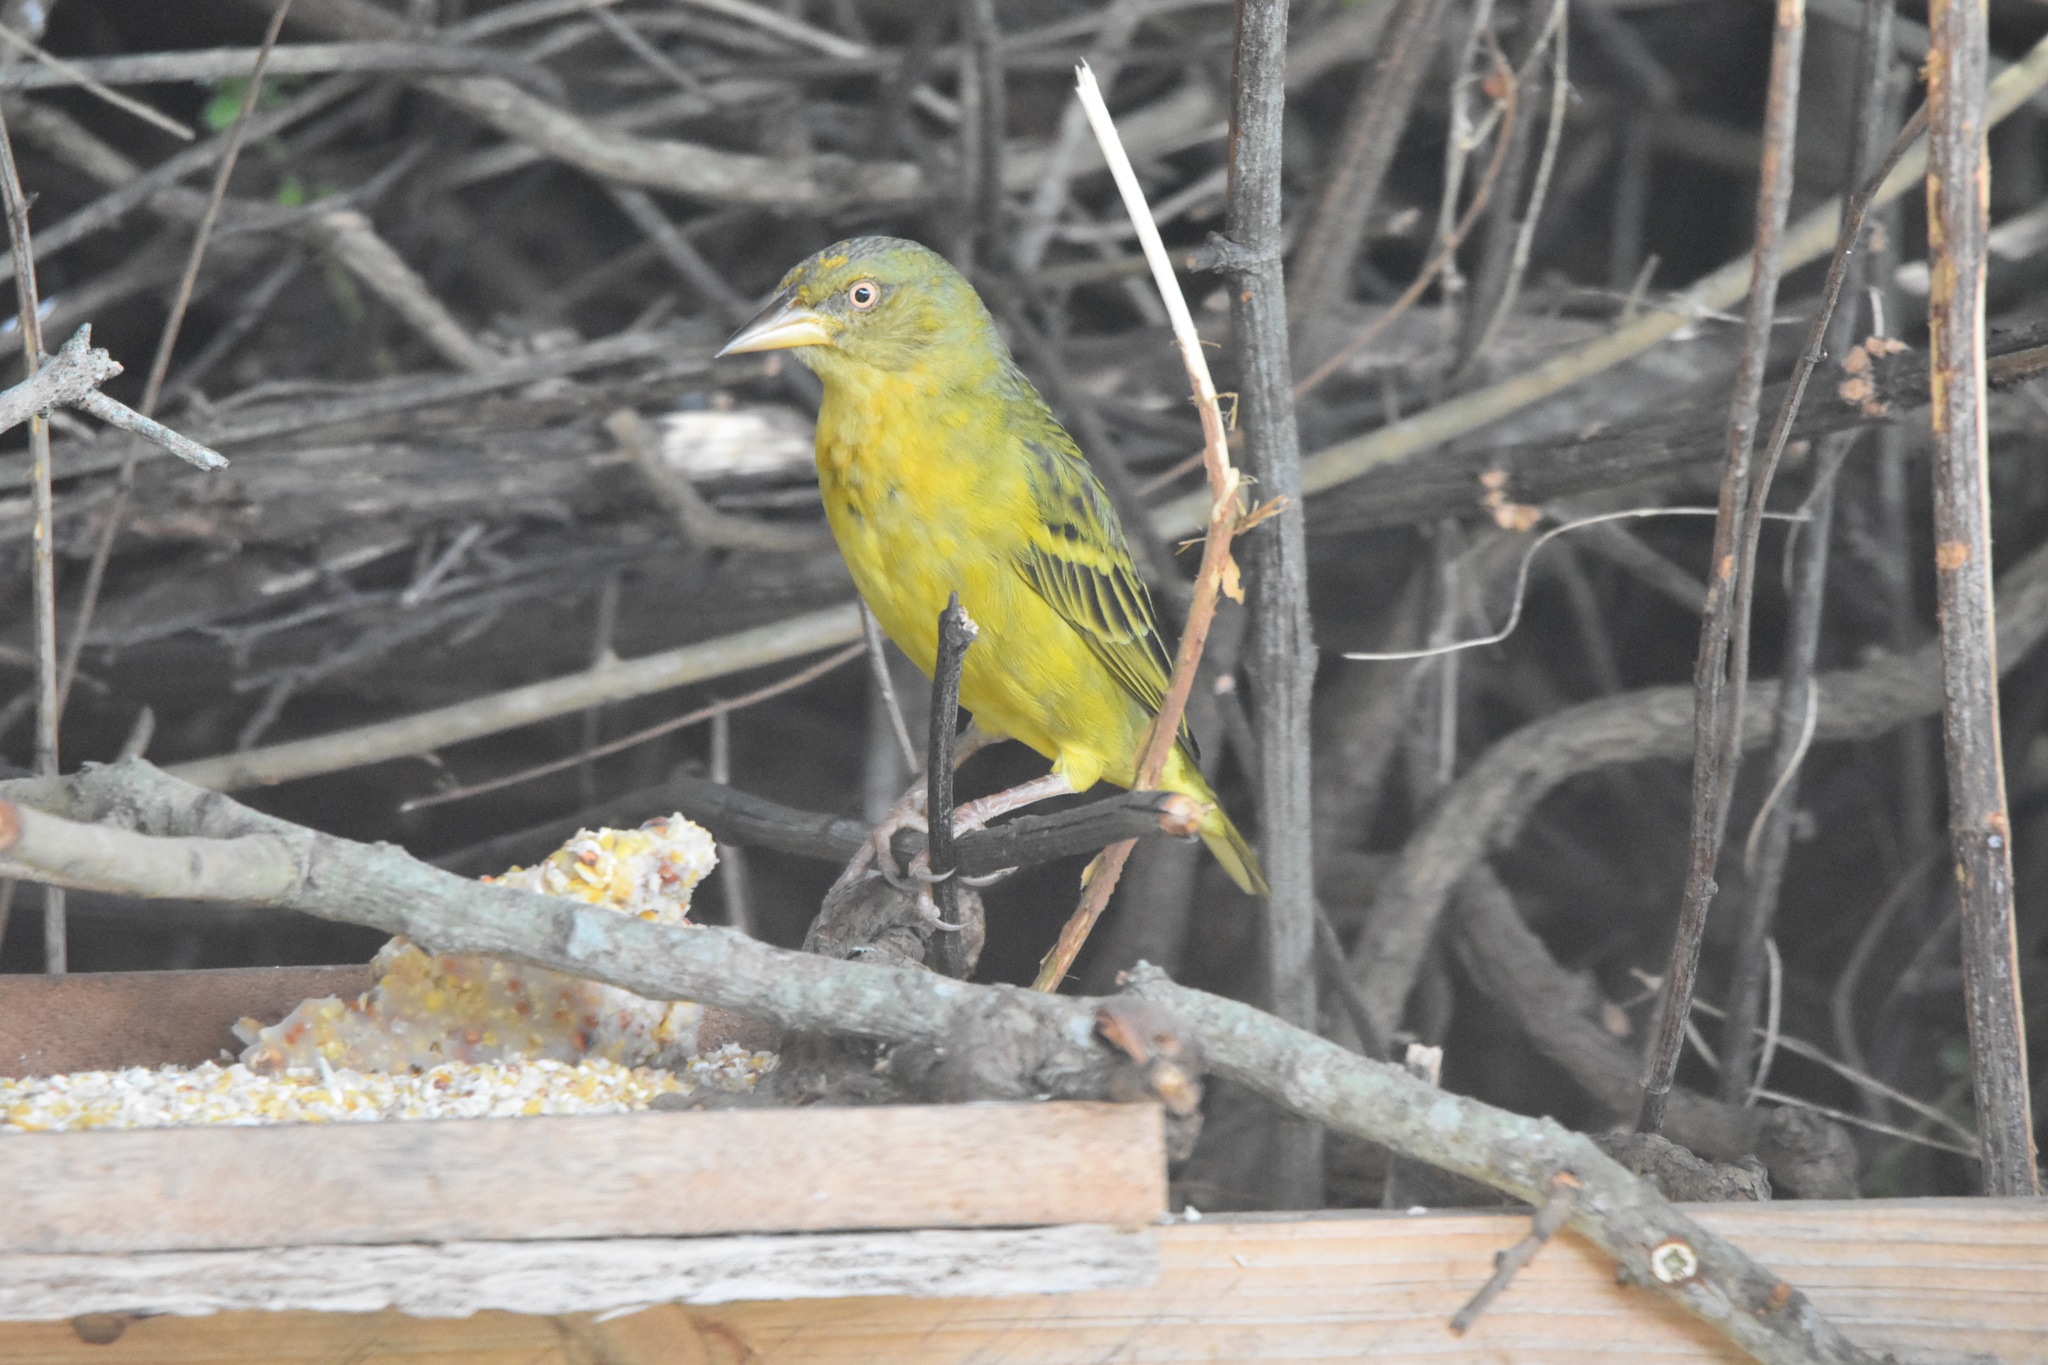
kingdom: Animalia
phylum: Chordata
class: Aves
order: Passeriformes
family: Ploceidae
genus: Ploceus
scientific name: Ploceus capensis
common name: Cape weaver
